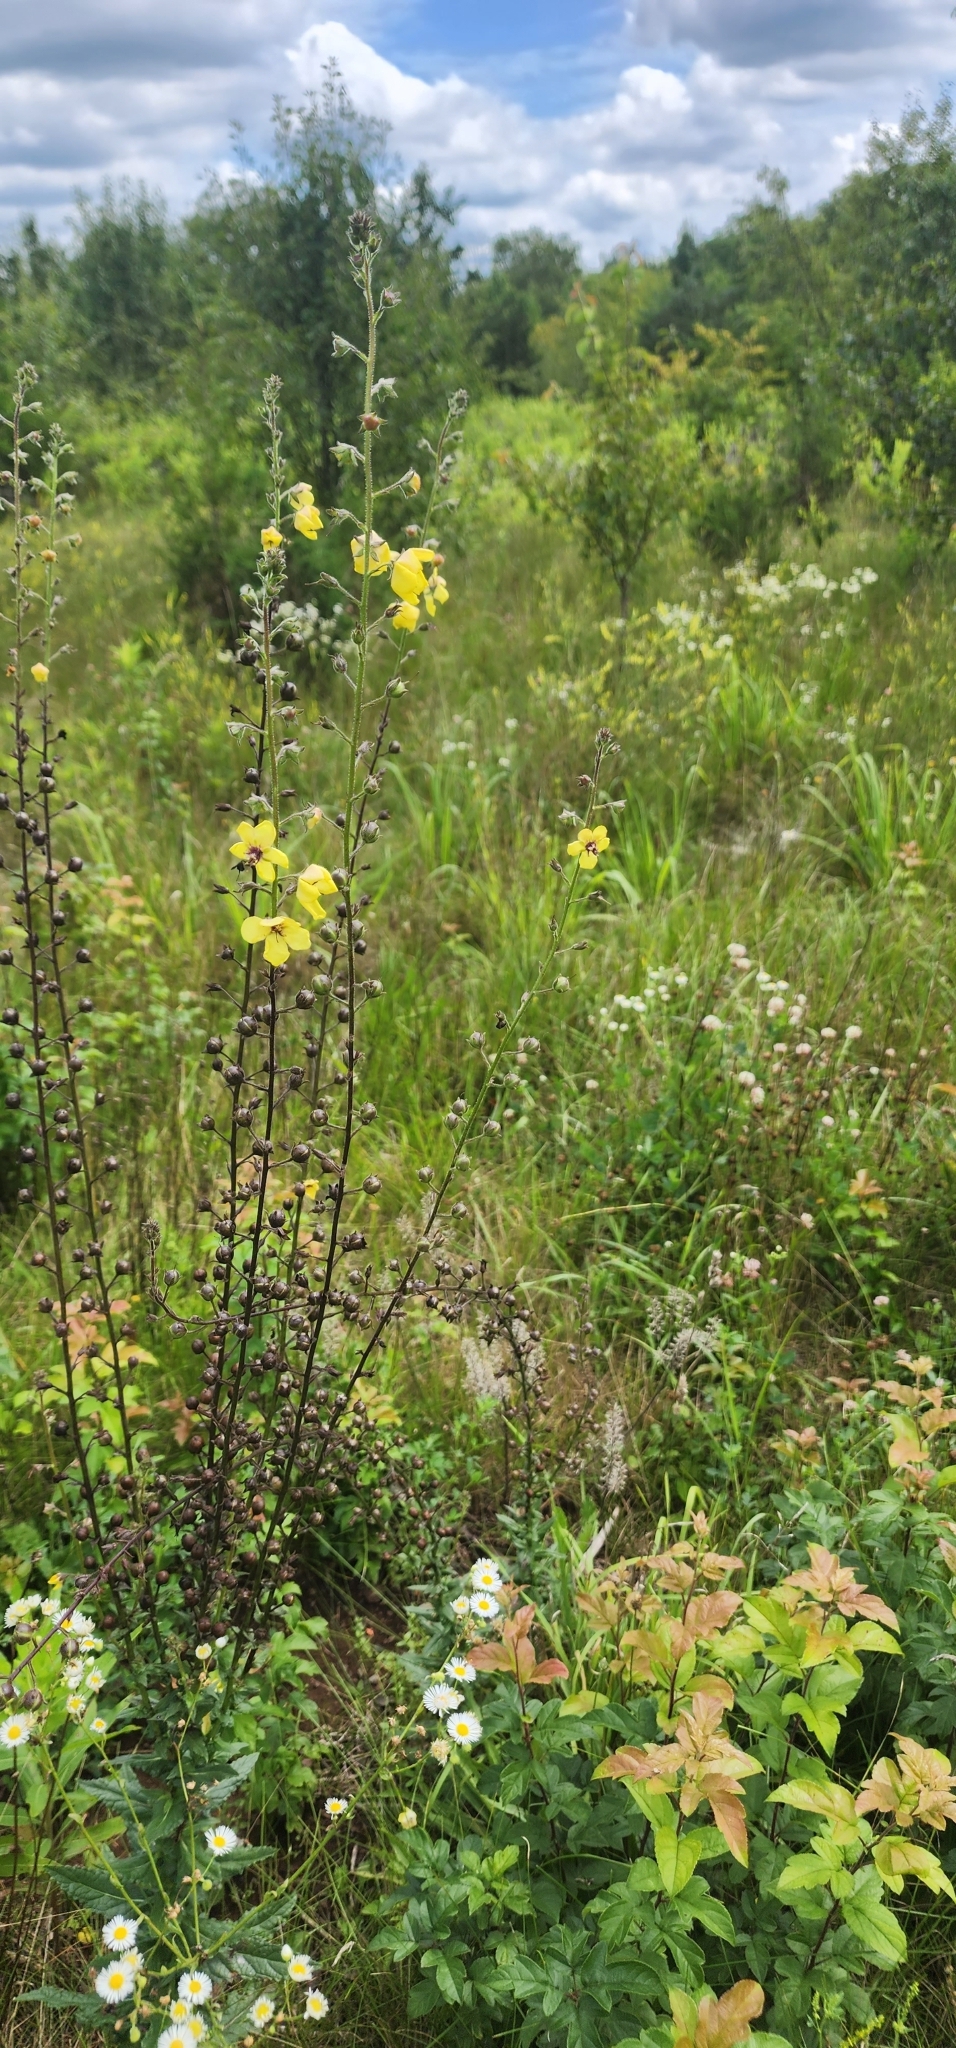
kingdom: Plantae
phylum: Tracheophyta
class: Magnoliopsida
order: Lamiales
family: Scrophulariaceae
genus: Verbascum
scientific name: Verbascum blattaria
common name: Moth mullein
